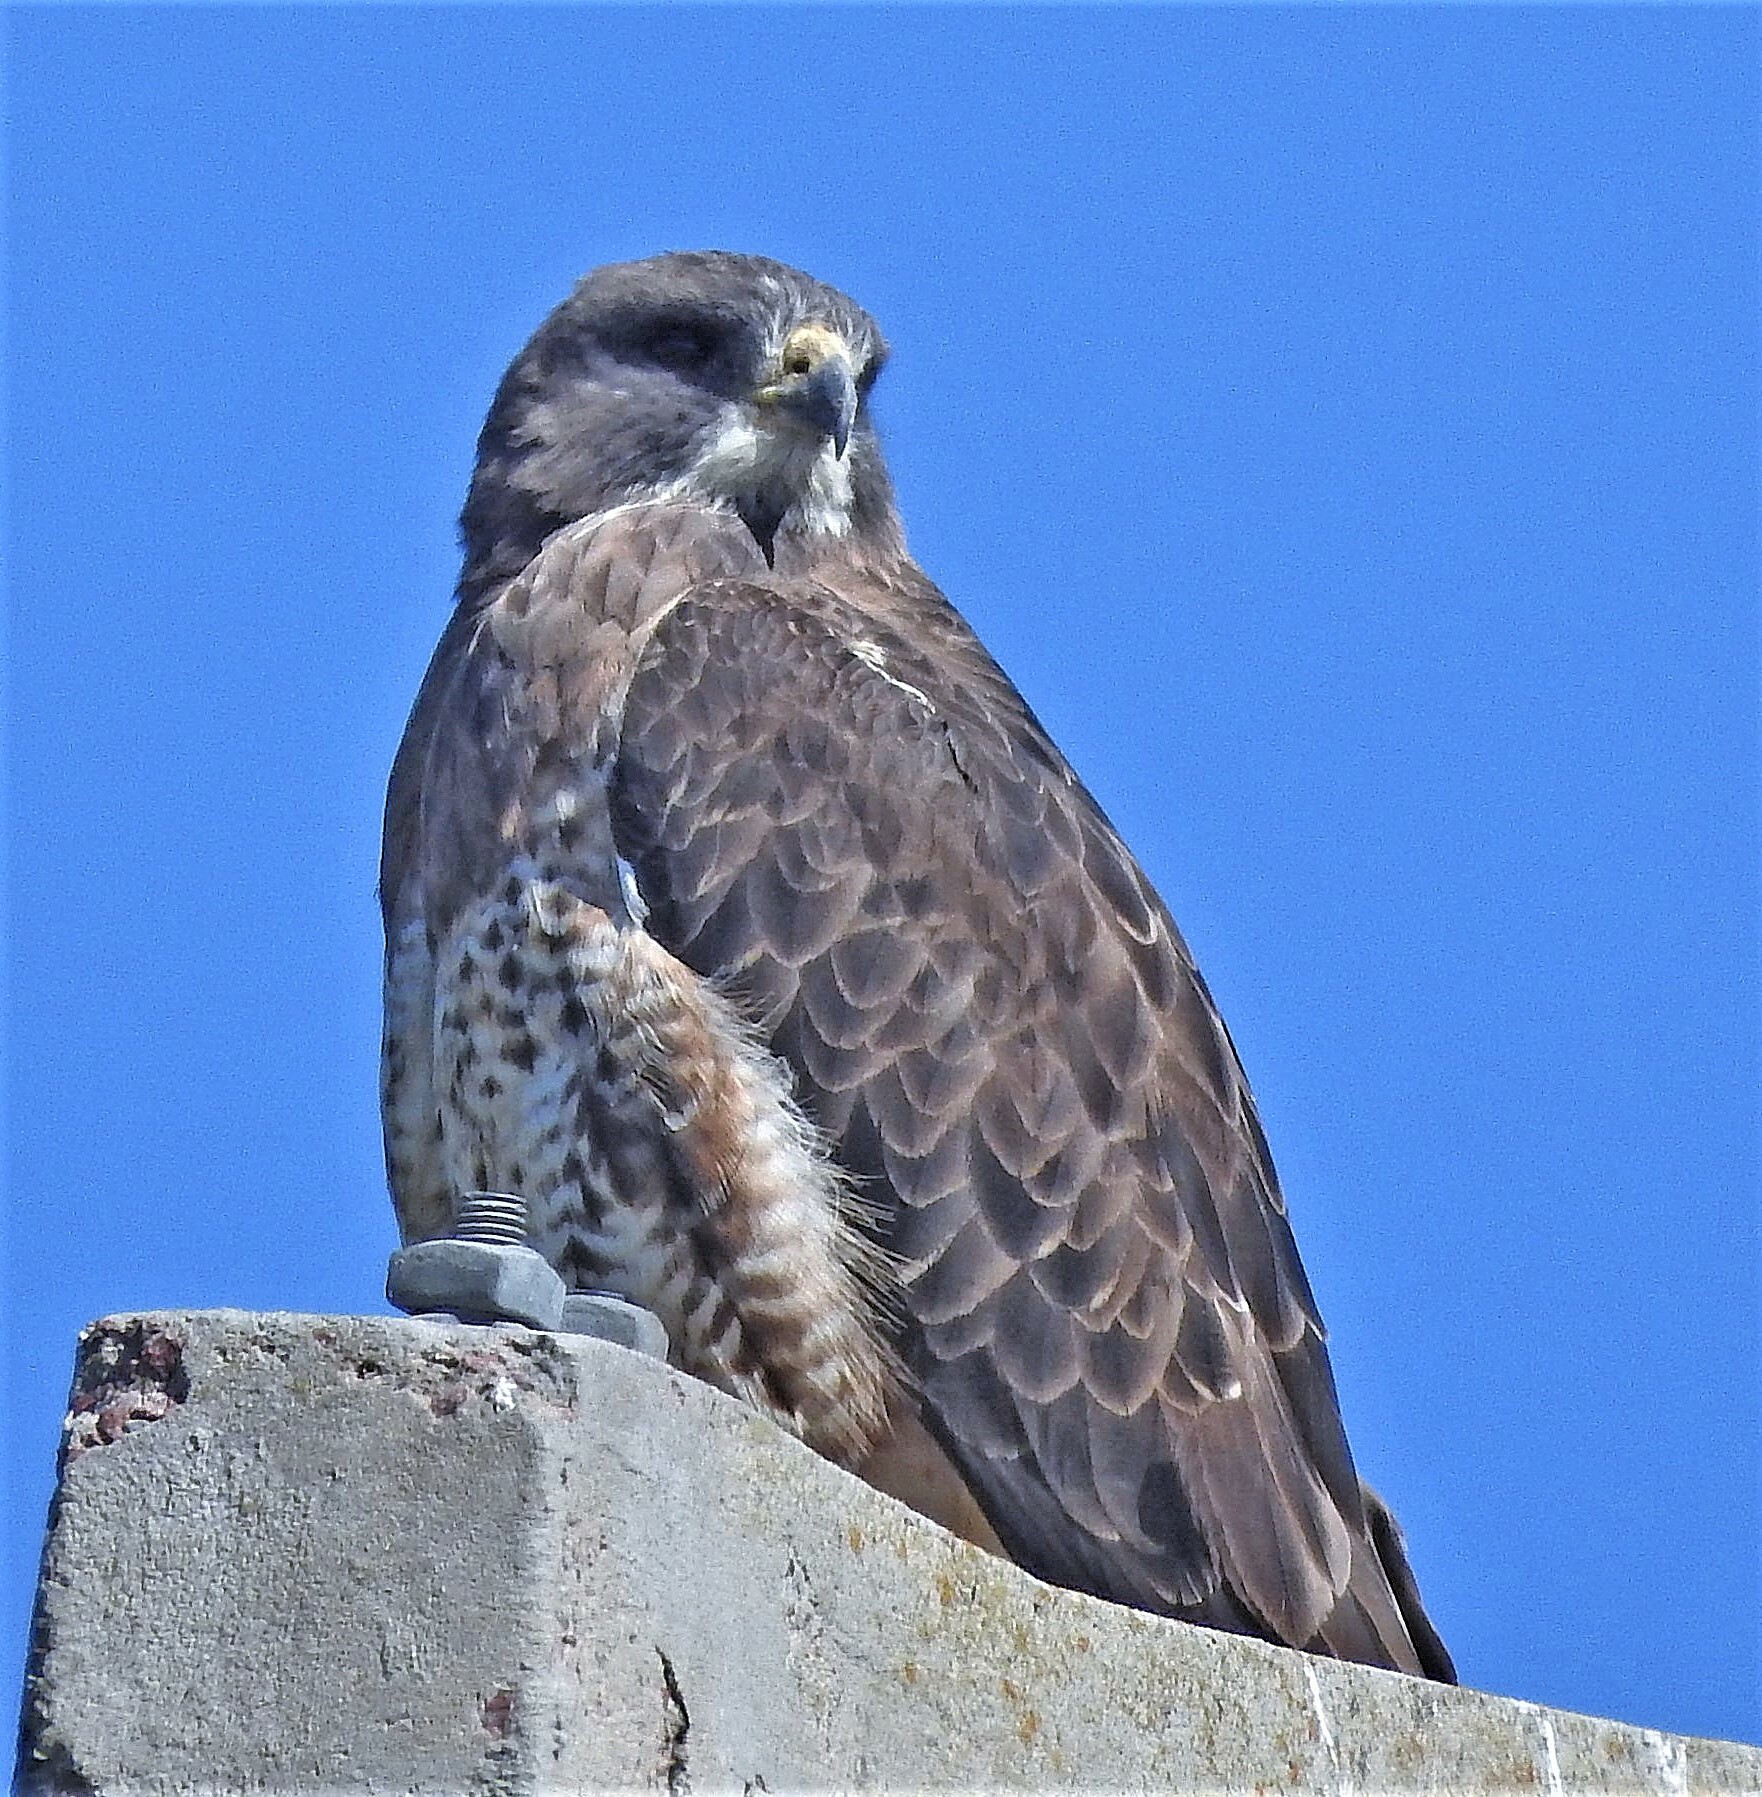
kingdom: Animalia
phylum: Chordata
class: Aves
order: Accipitriformes
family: Accipitridae
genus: Buteo
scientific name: Buteo swainsoni
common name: Swainson's hawk
